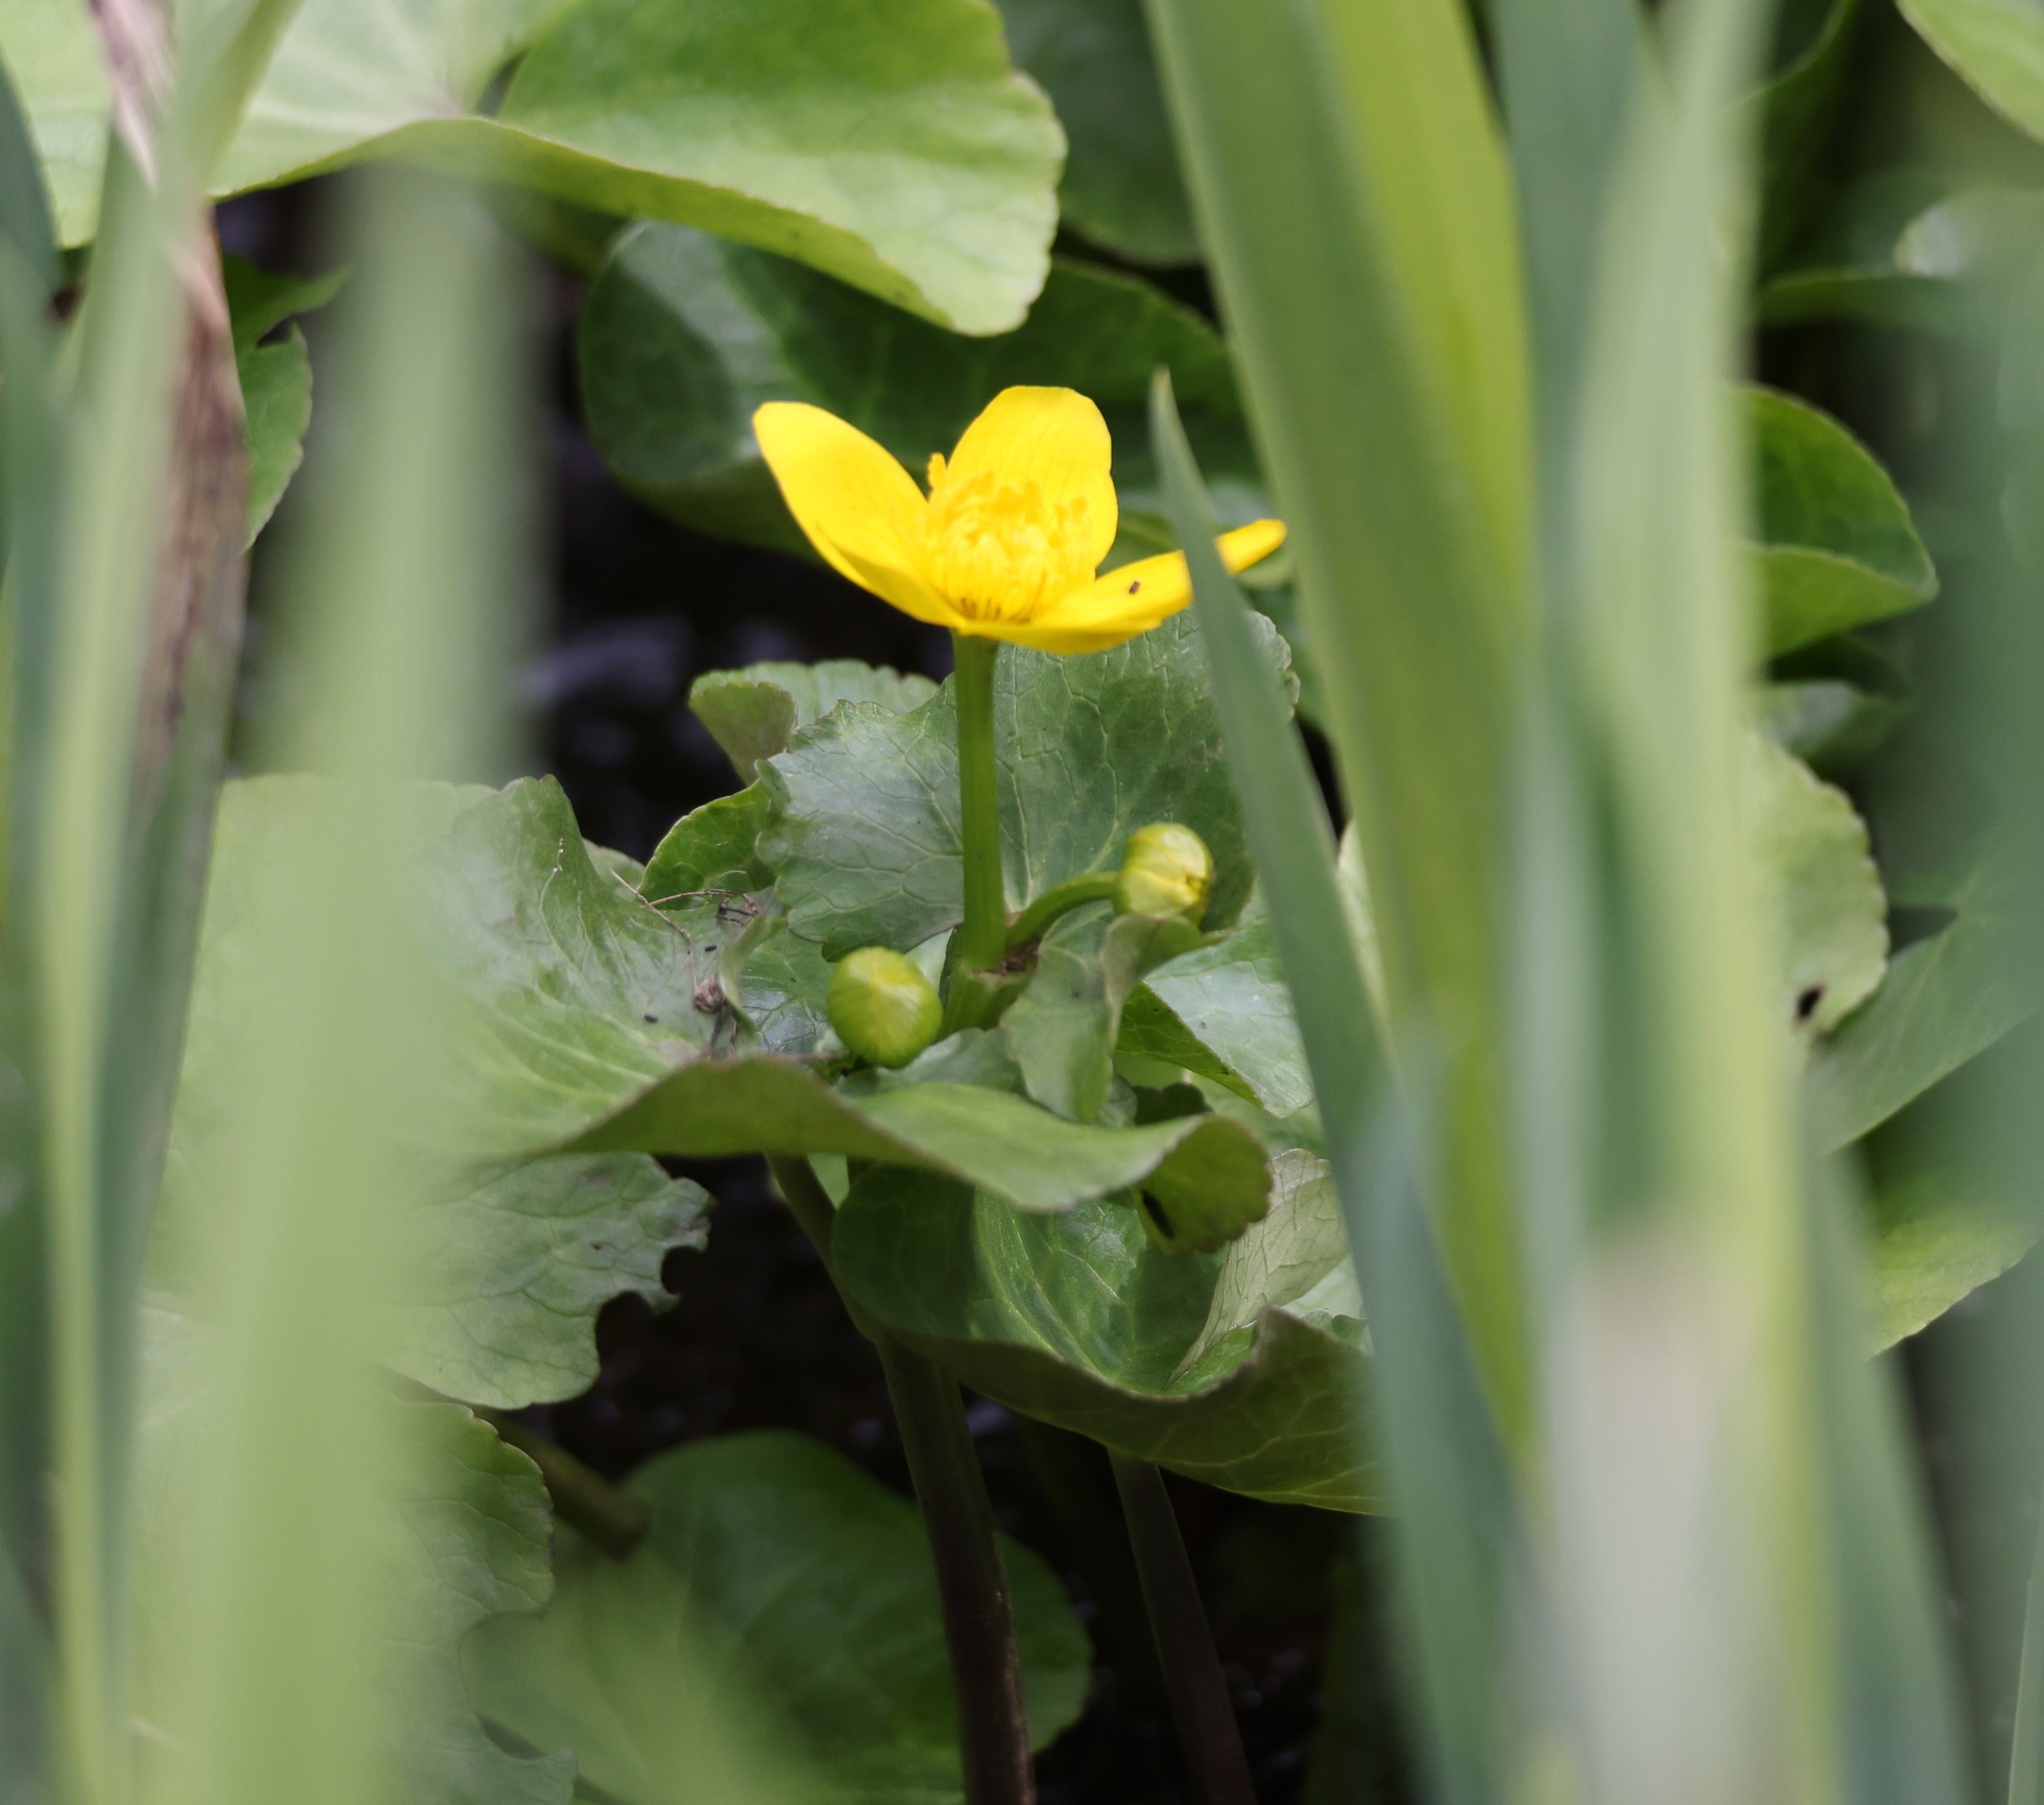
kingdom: Plantae
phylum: Tracheophyta
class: Magnoliopsida
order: Ranunculales
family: Ranunculaceae
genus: Caltha
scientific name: Caltha palustris
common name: Marsh marigold
